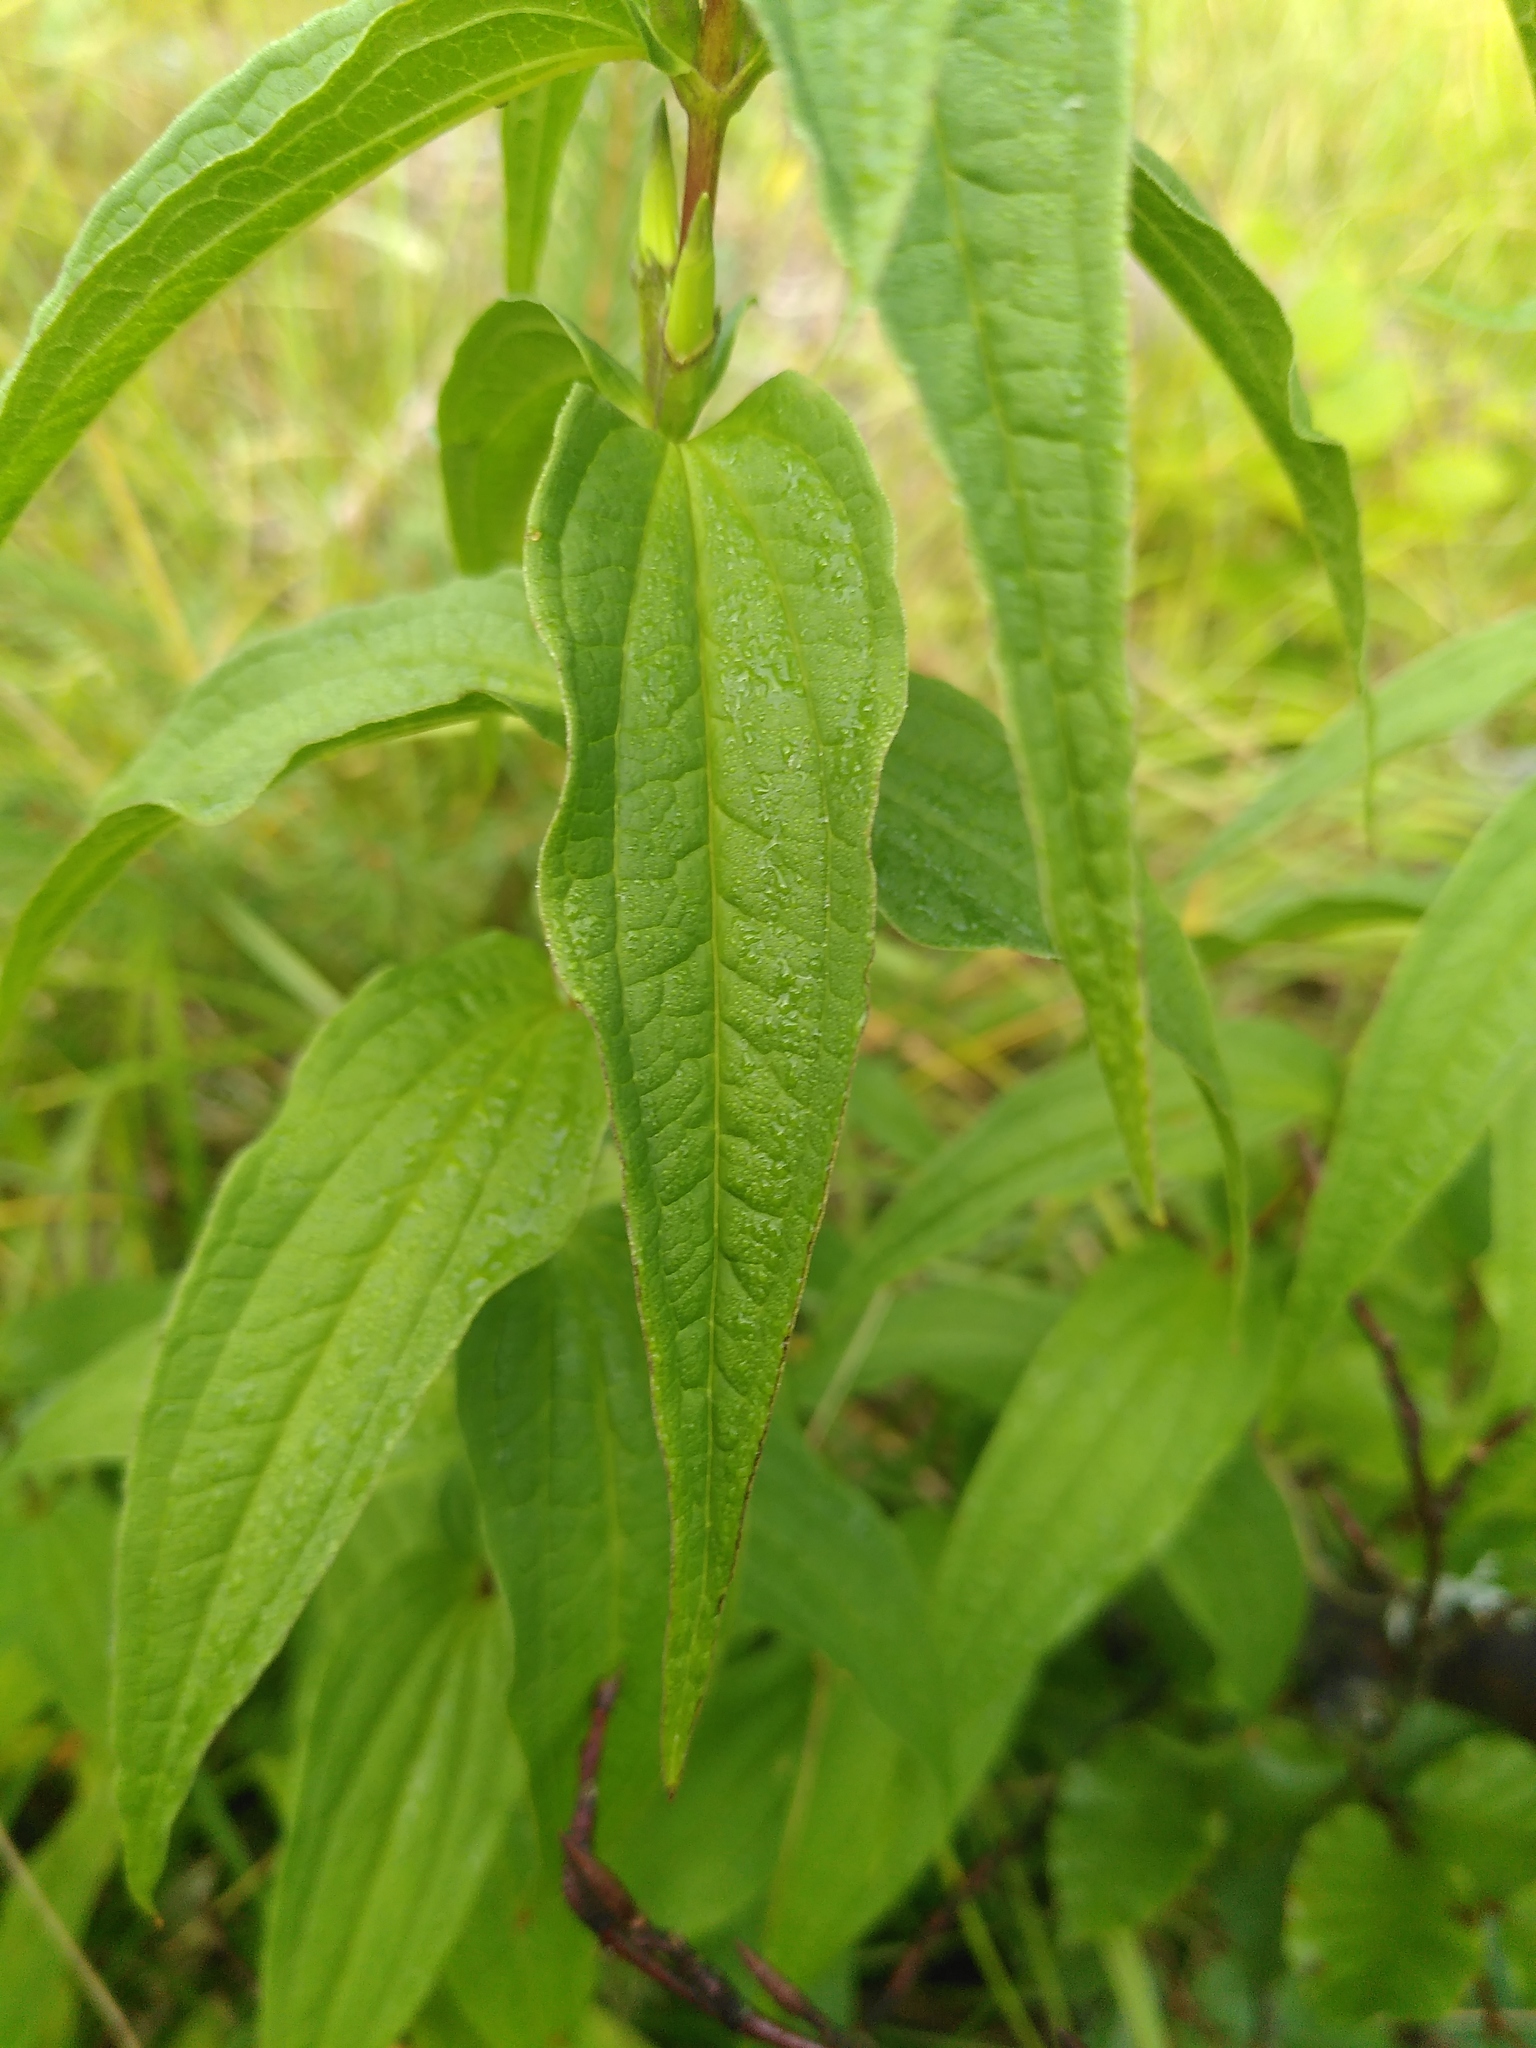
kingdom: Plantae
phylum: Tracheophyta
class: Magnoliopsida
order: Gentianales
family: Gentianaceae
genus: Gentiana
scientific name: Gentiana asclepiadea
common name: Willow gentian
